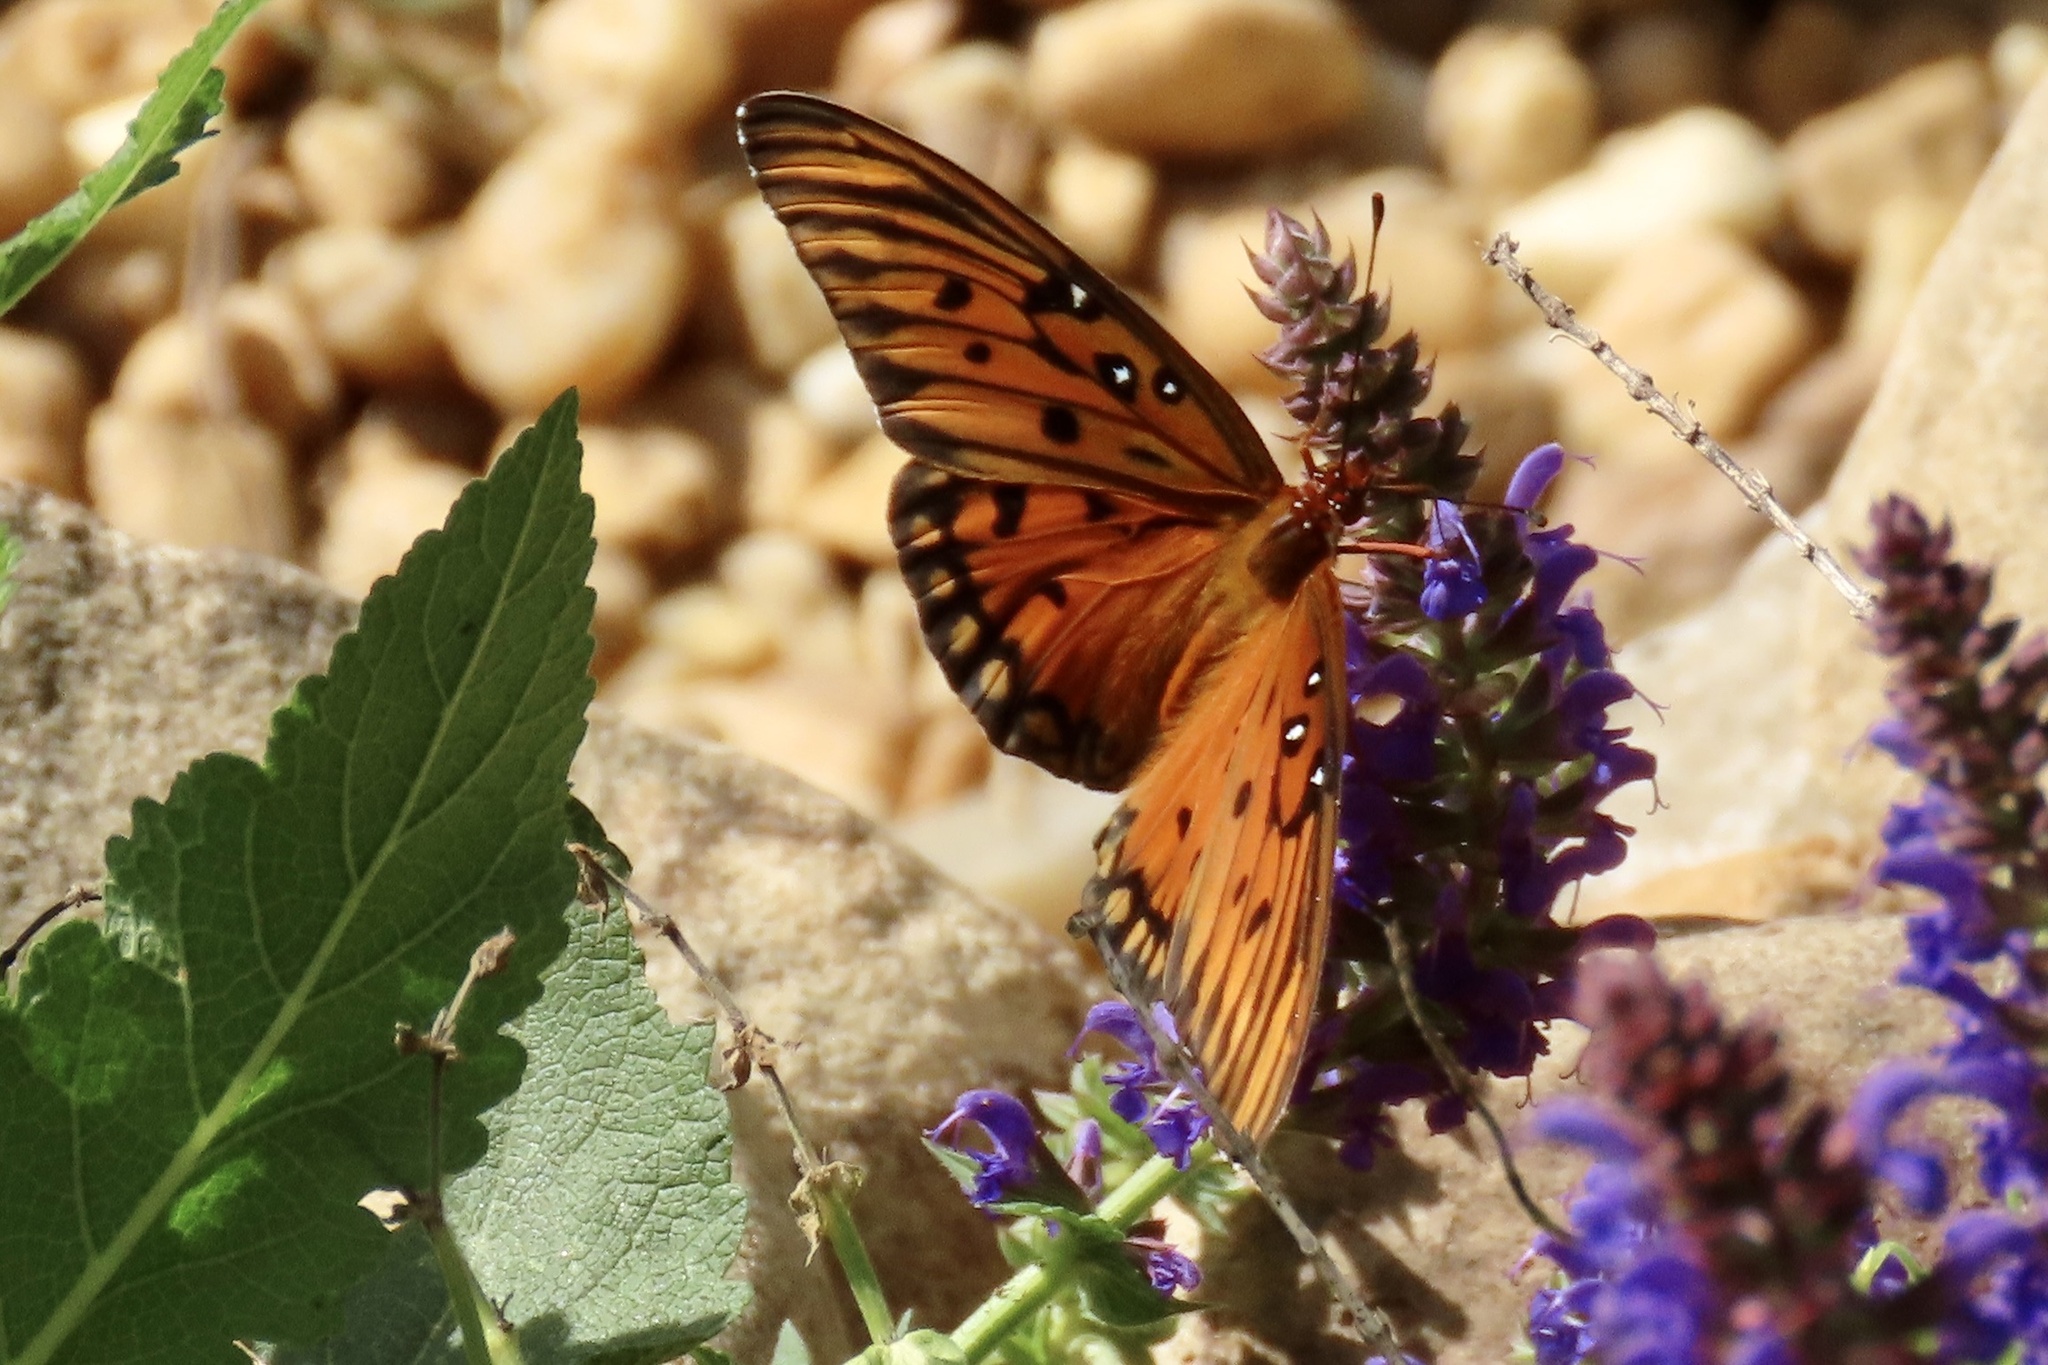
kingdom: Animalia
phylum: Arthropoda
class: Insecta
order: Lepidoptera
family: Nymphalidae
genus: Dione
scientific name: Dione vanillae
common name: Gulf fritillary
